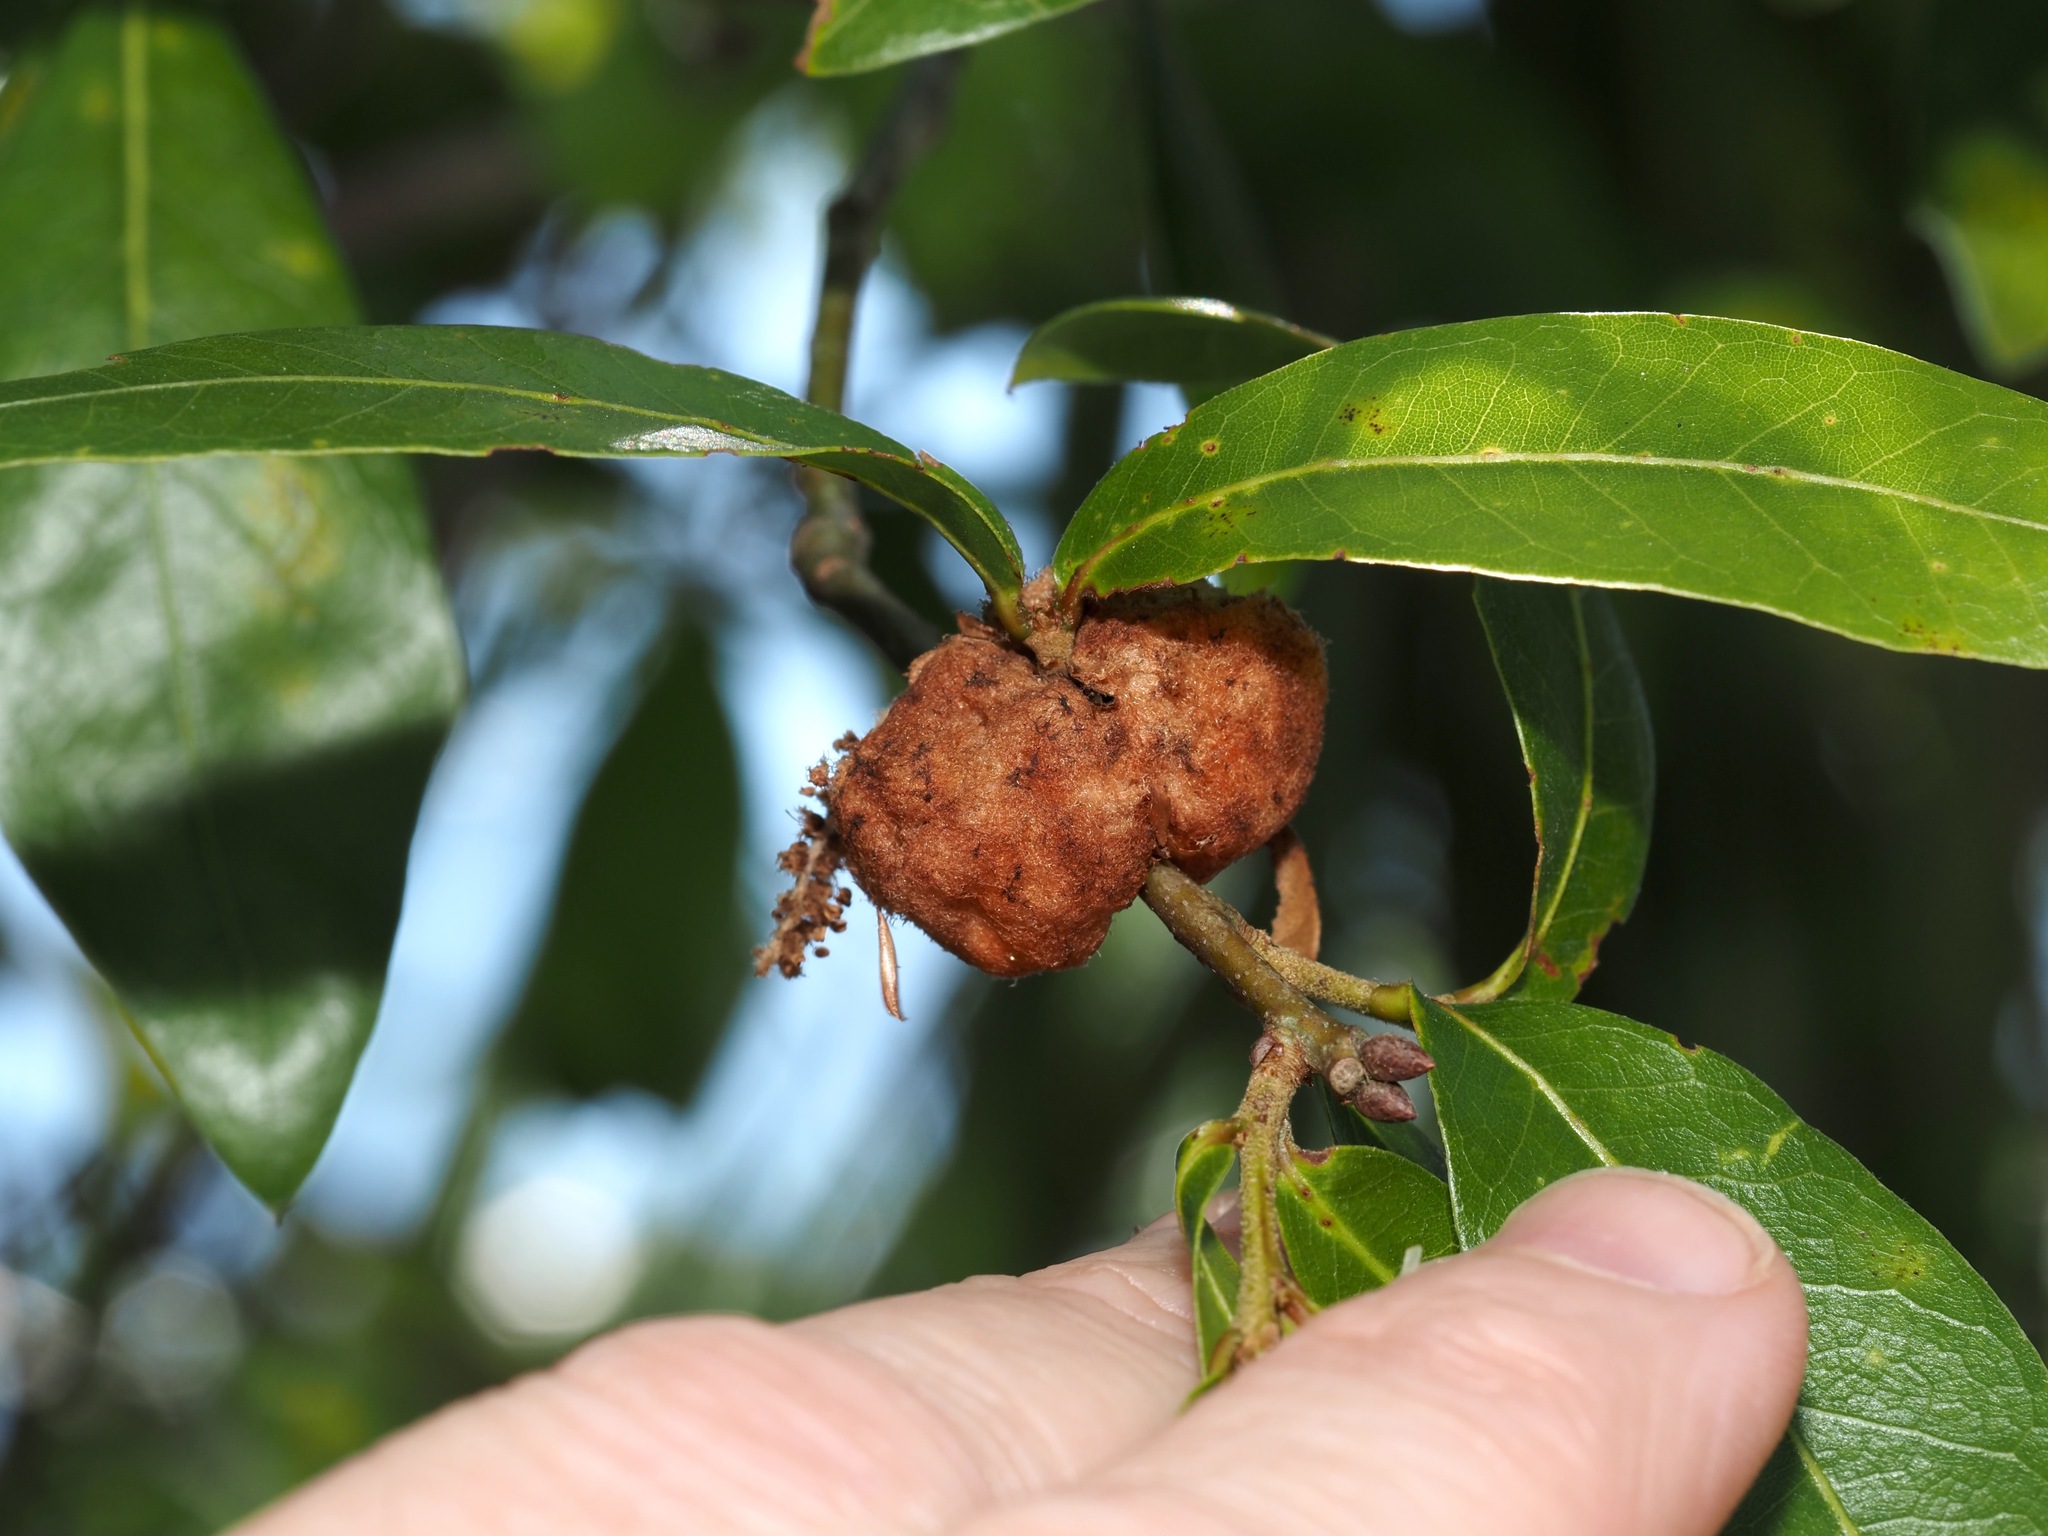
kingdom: Animalia
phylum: Arthropoda
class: Insecta
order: Hymenoptera
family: Cynipidae
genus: Callirhytis
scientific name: Callirhytis
